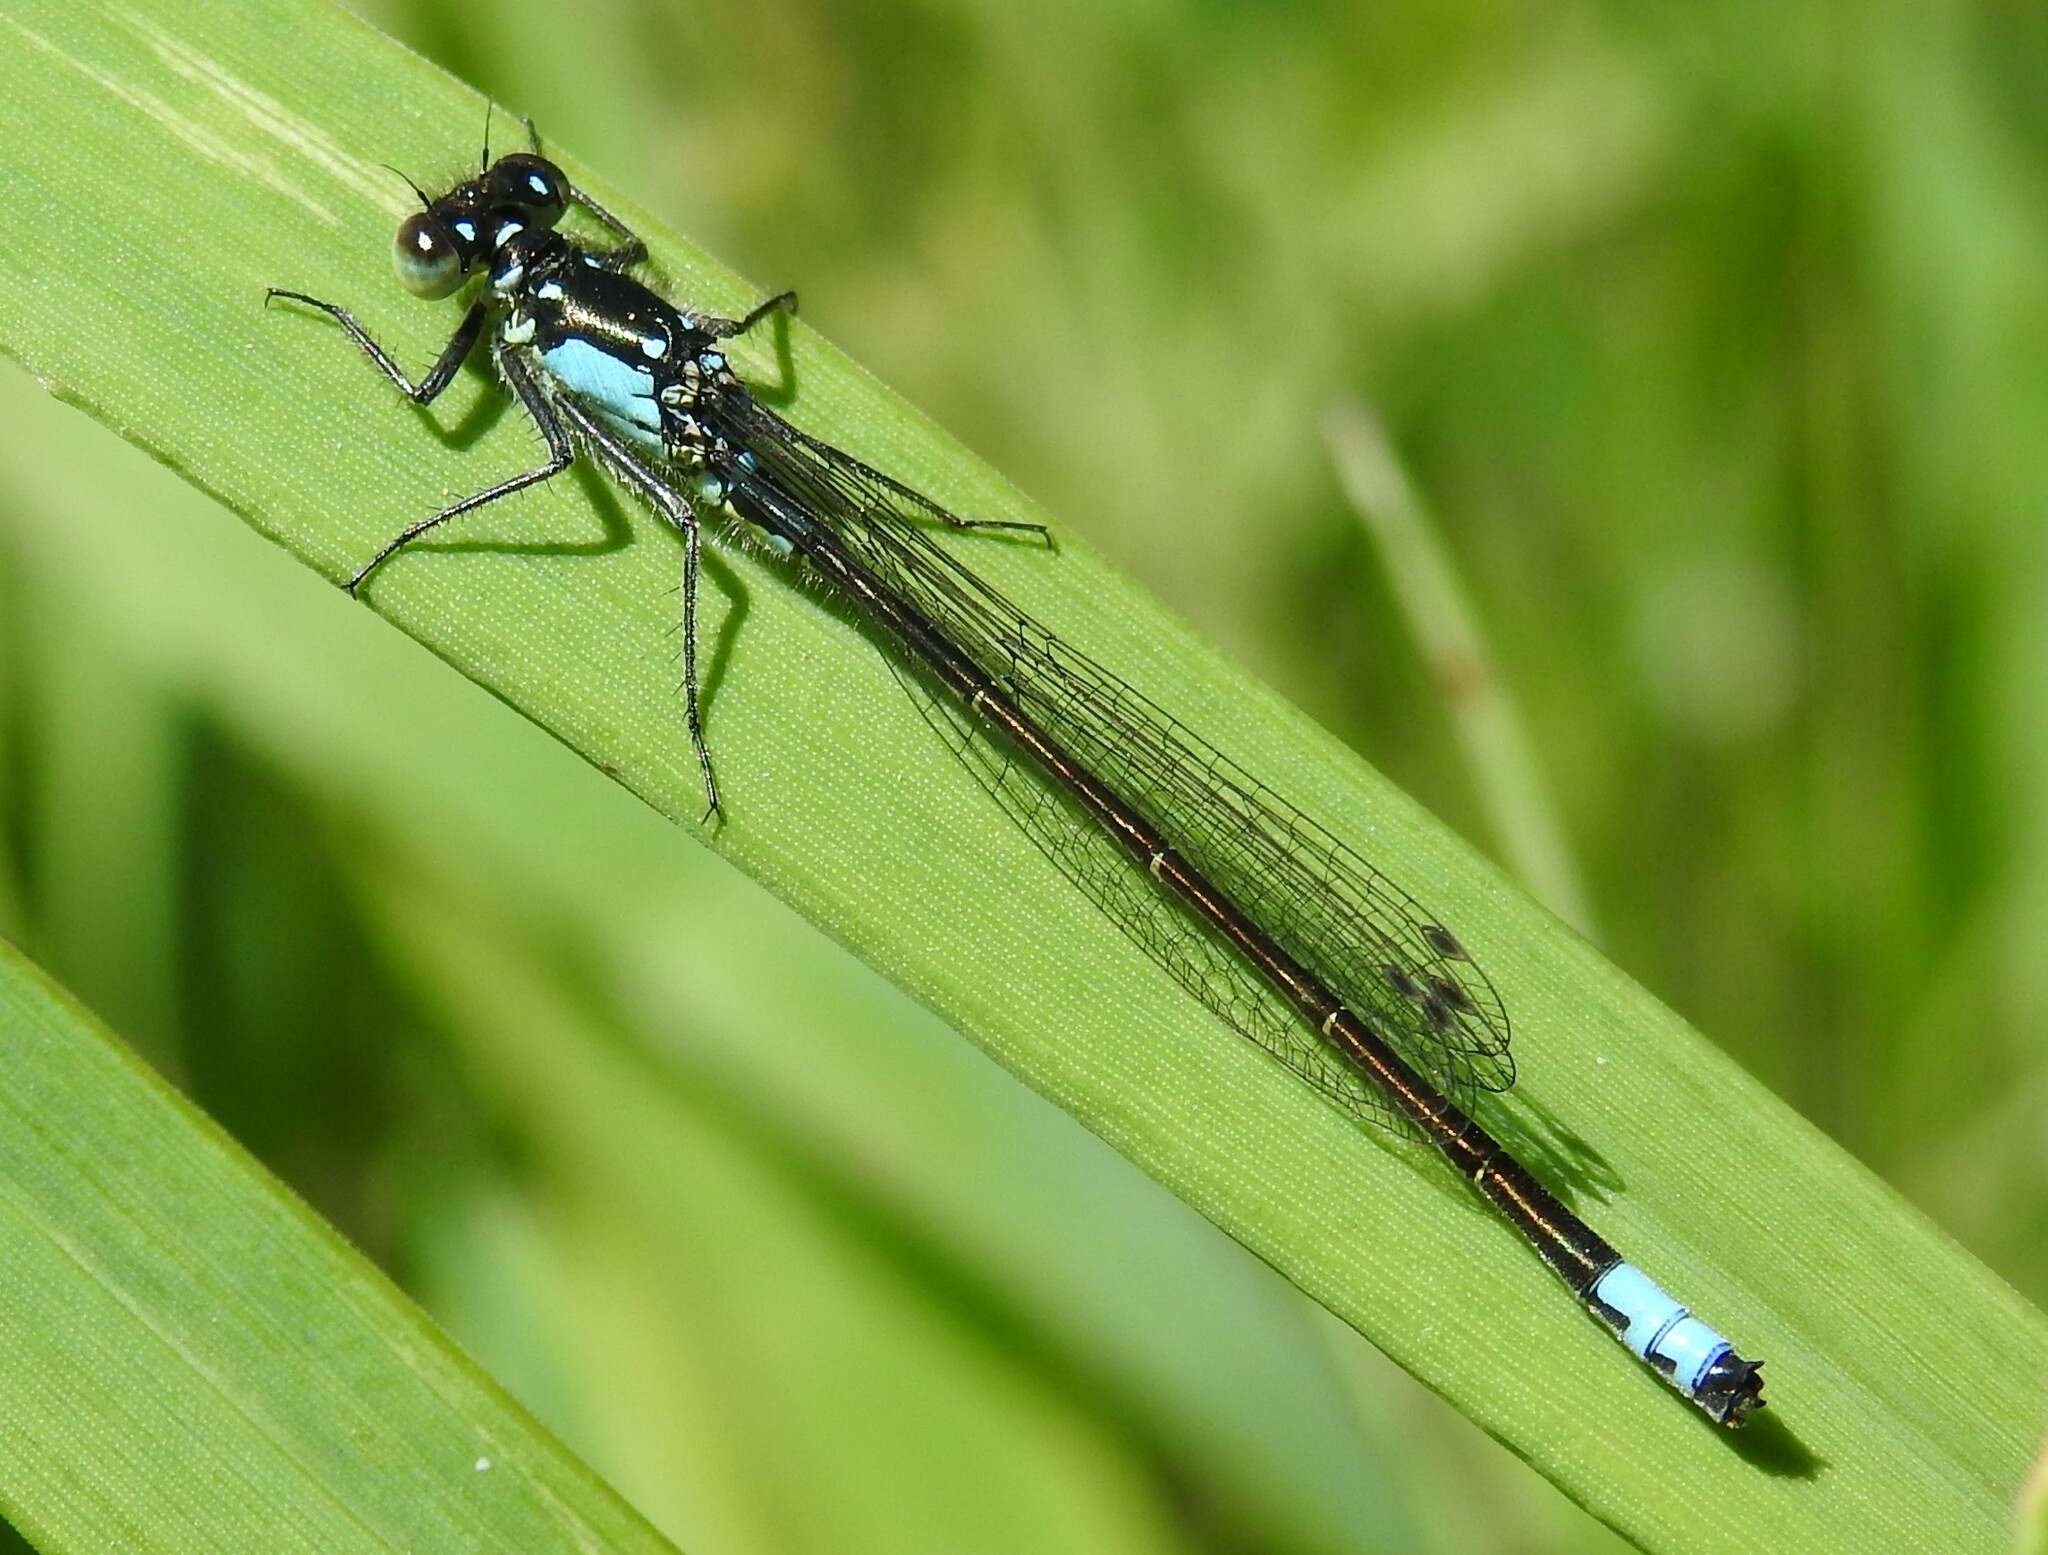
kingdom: Animalia
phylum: Arthropoda
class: Insecta
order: Odonata
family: Coenagrionidae
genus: Ischnura
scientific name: Ischnura cervula
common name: Pacific forktail
